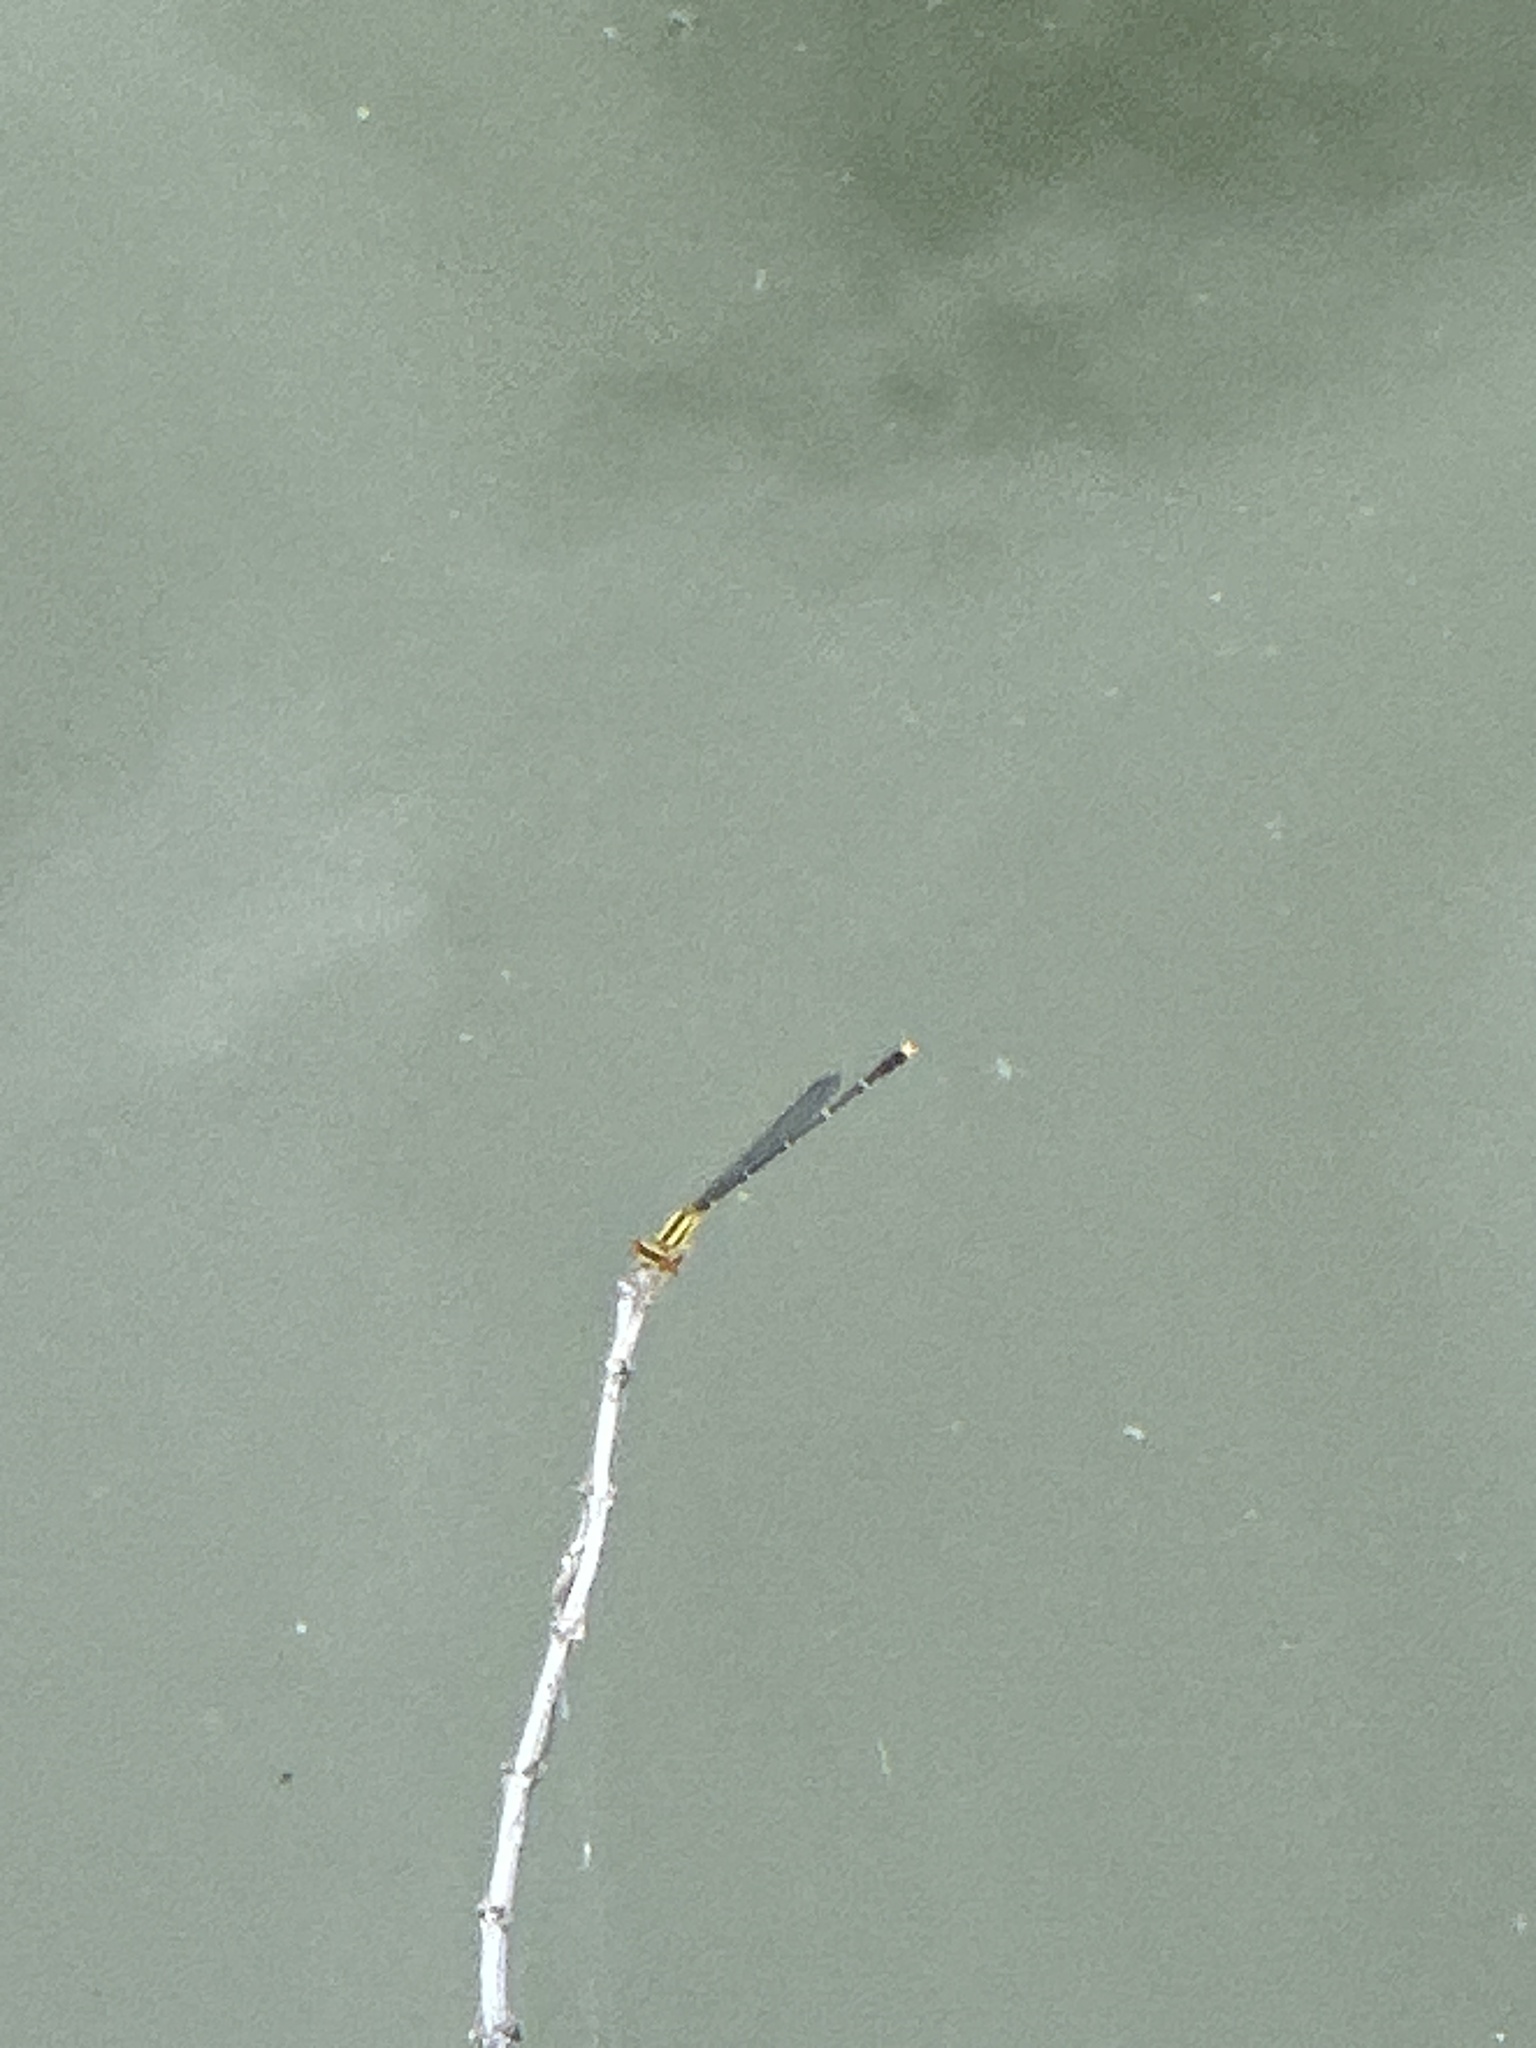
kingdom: Animalia
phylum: Arthropoda
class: Insecta
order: Odonata
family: Coenagrionidae
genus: Enallagma
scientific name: Enallagma signatum
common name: Orange bluet
